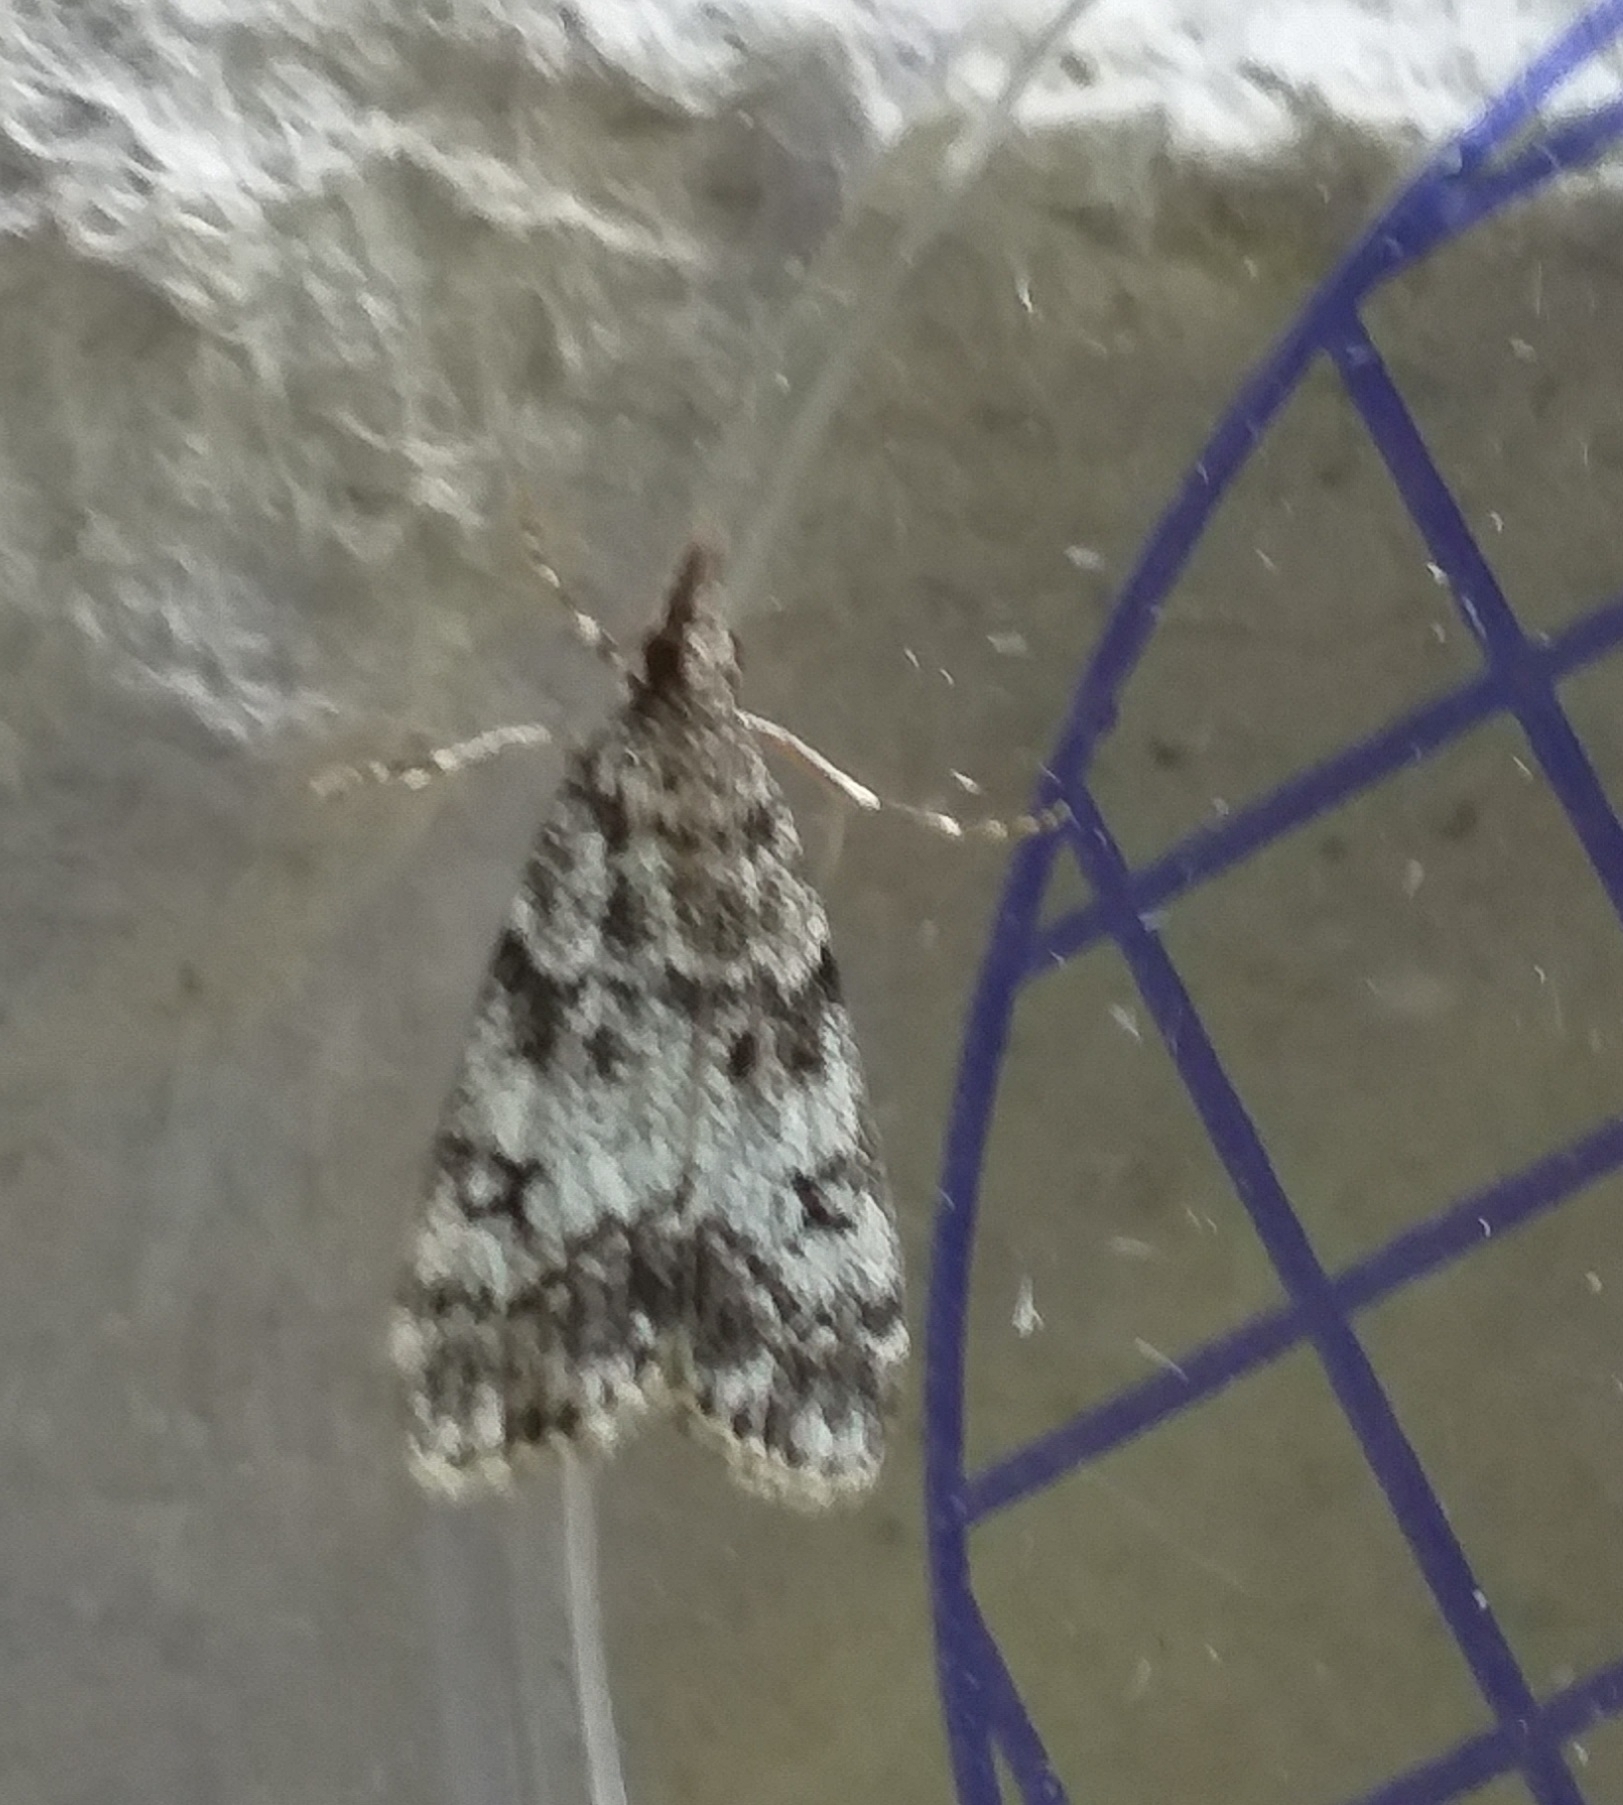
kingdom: Animalia
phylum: Arthropoda
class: Insecta
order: Lepidoptera
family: Crambidae
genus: Eudonia
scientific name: Eudonia lacustrata
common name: Little grey
